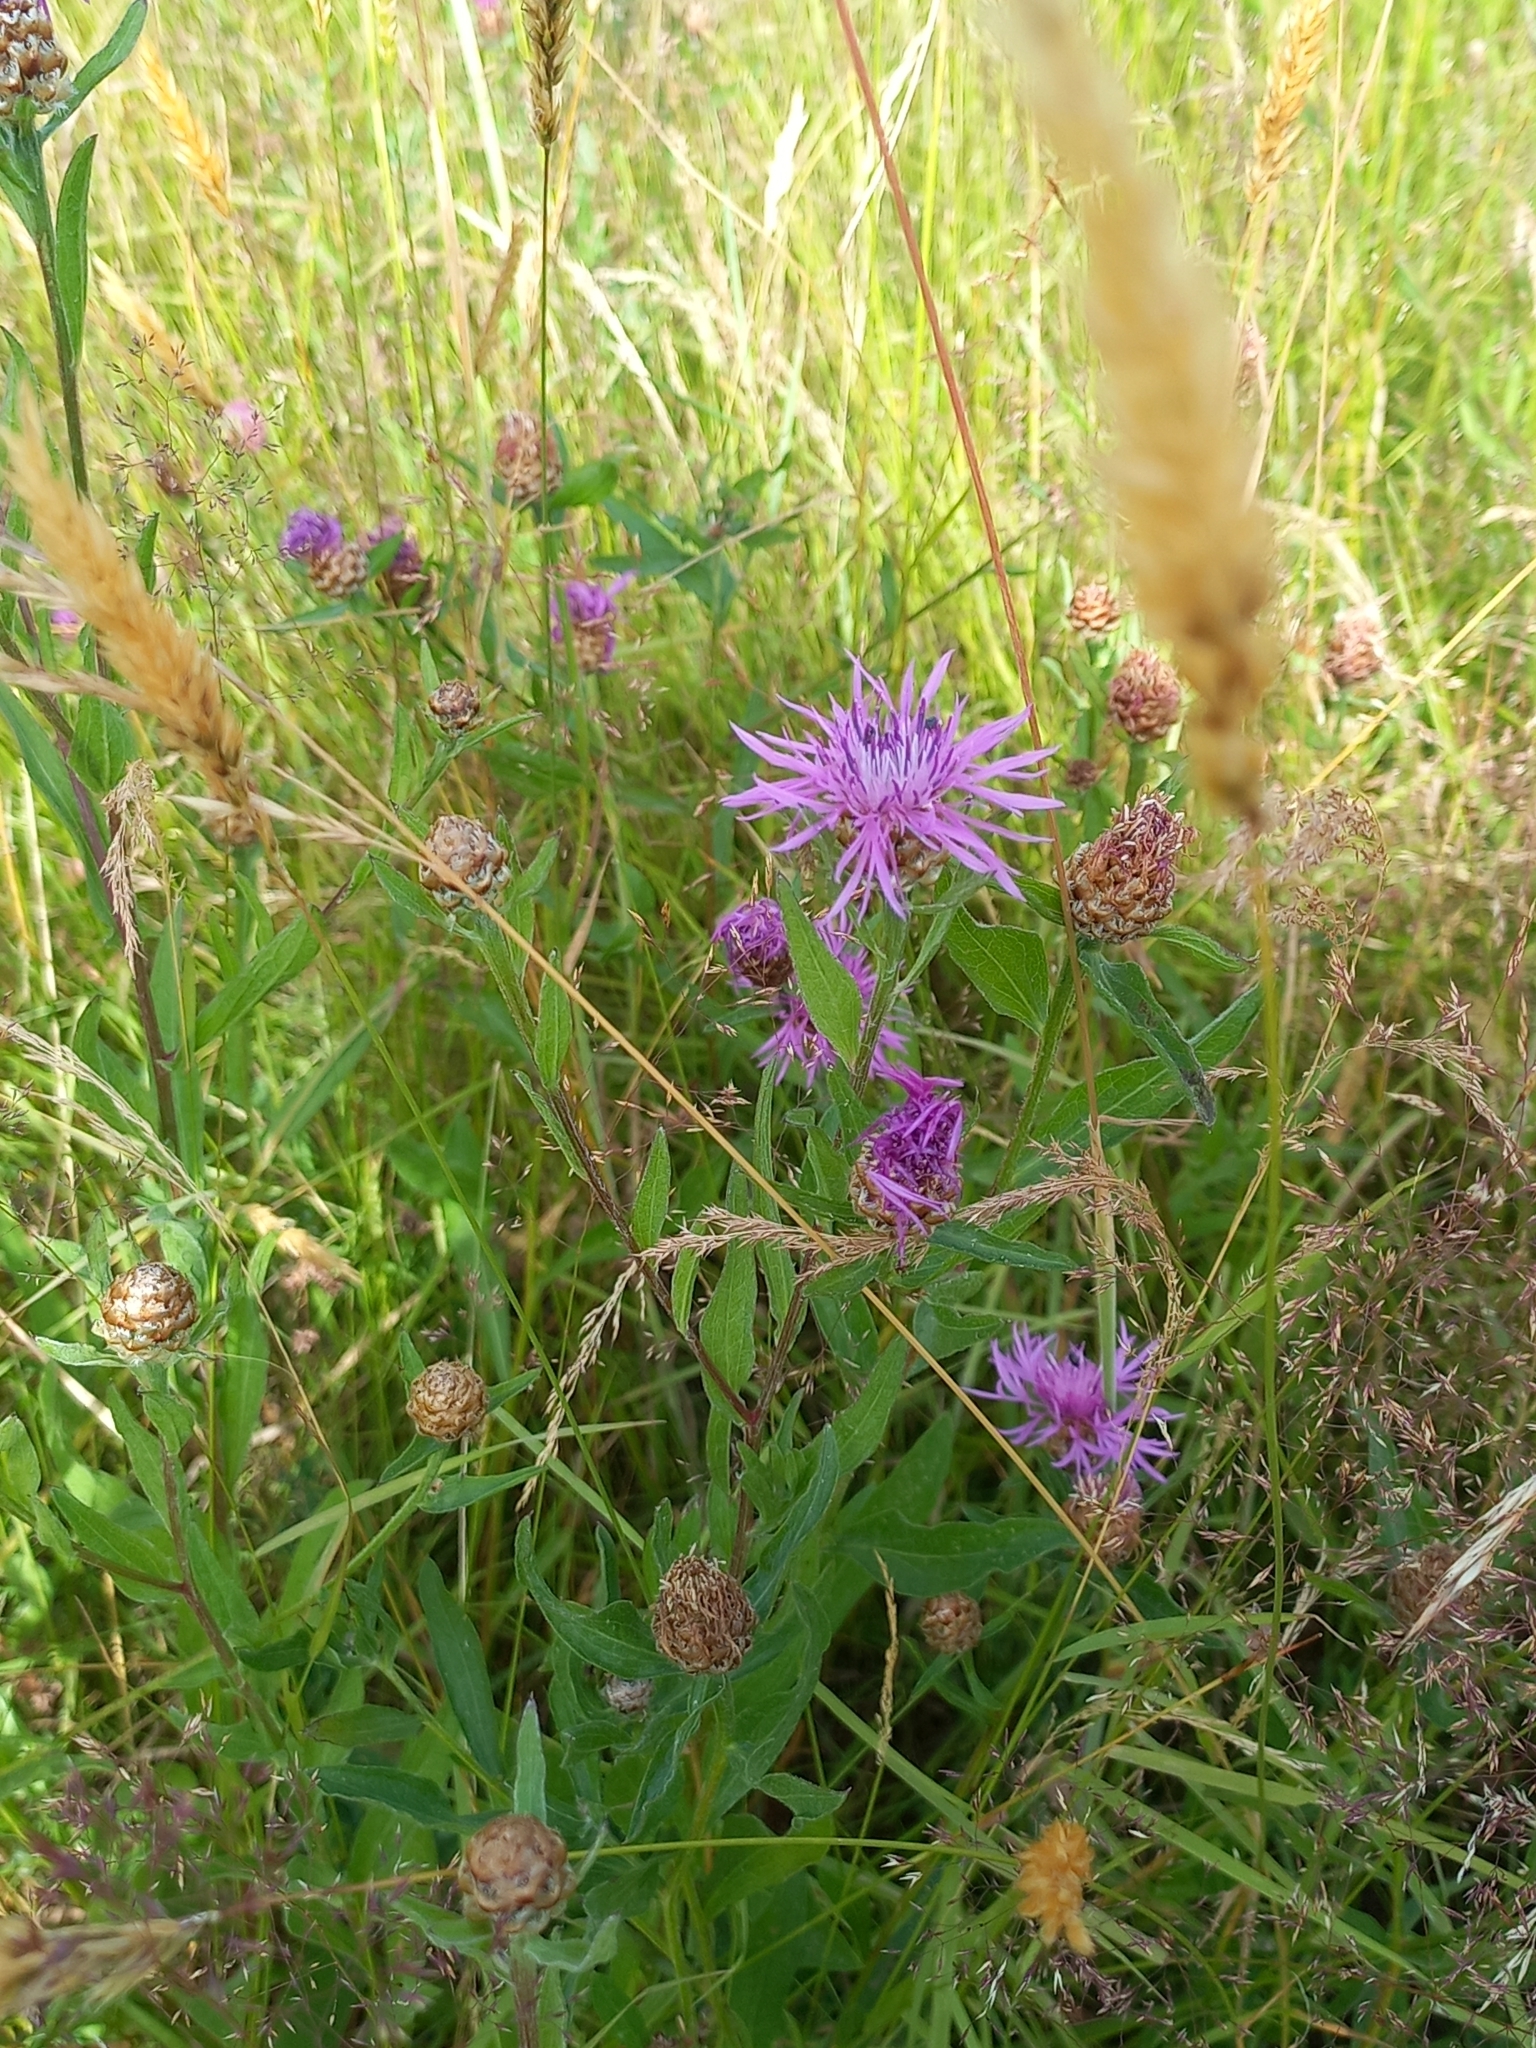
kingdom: Plantae
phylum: Tracheophyta
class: Magnoliopsida
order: Asterales
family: Asteraceae
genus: Centaurea
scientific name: Centaurea jacea
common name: Brown knapweed
